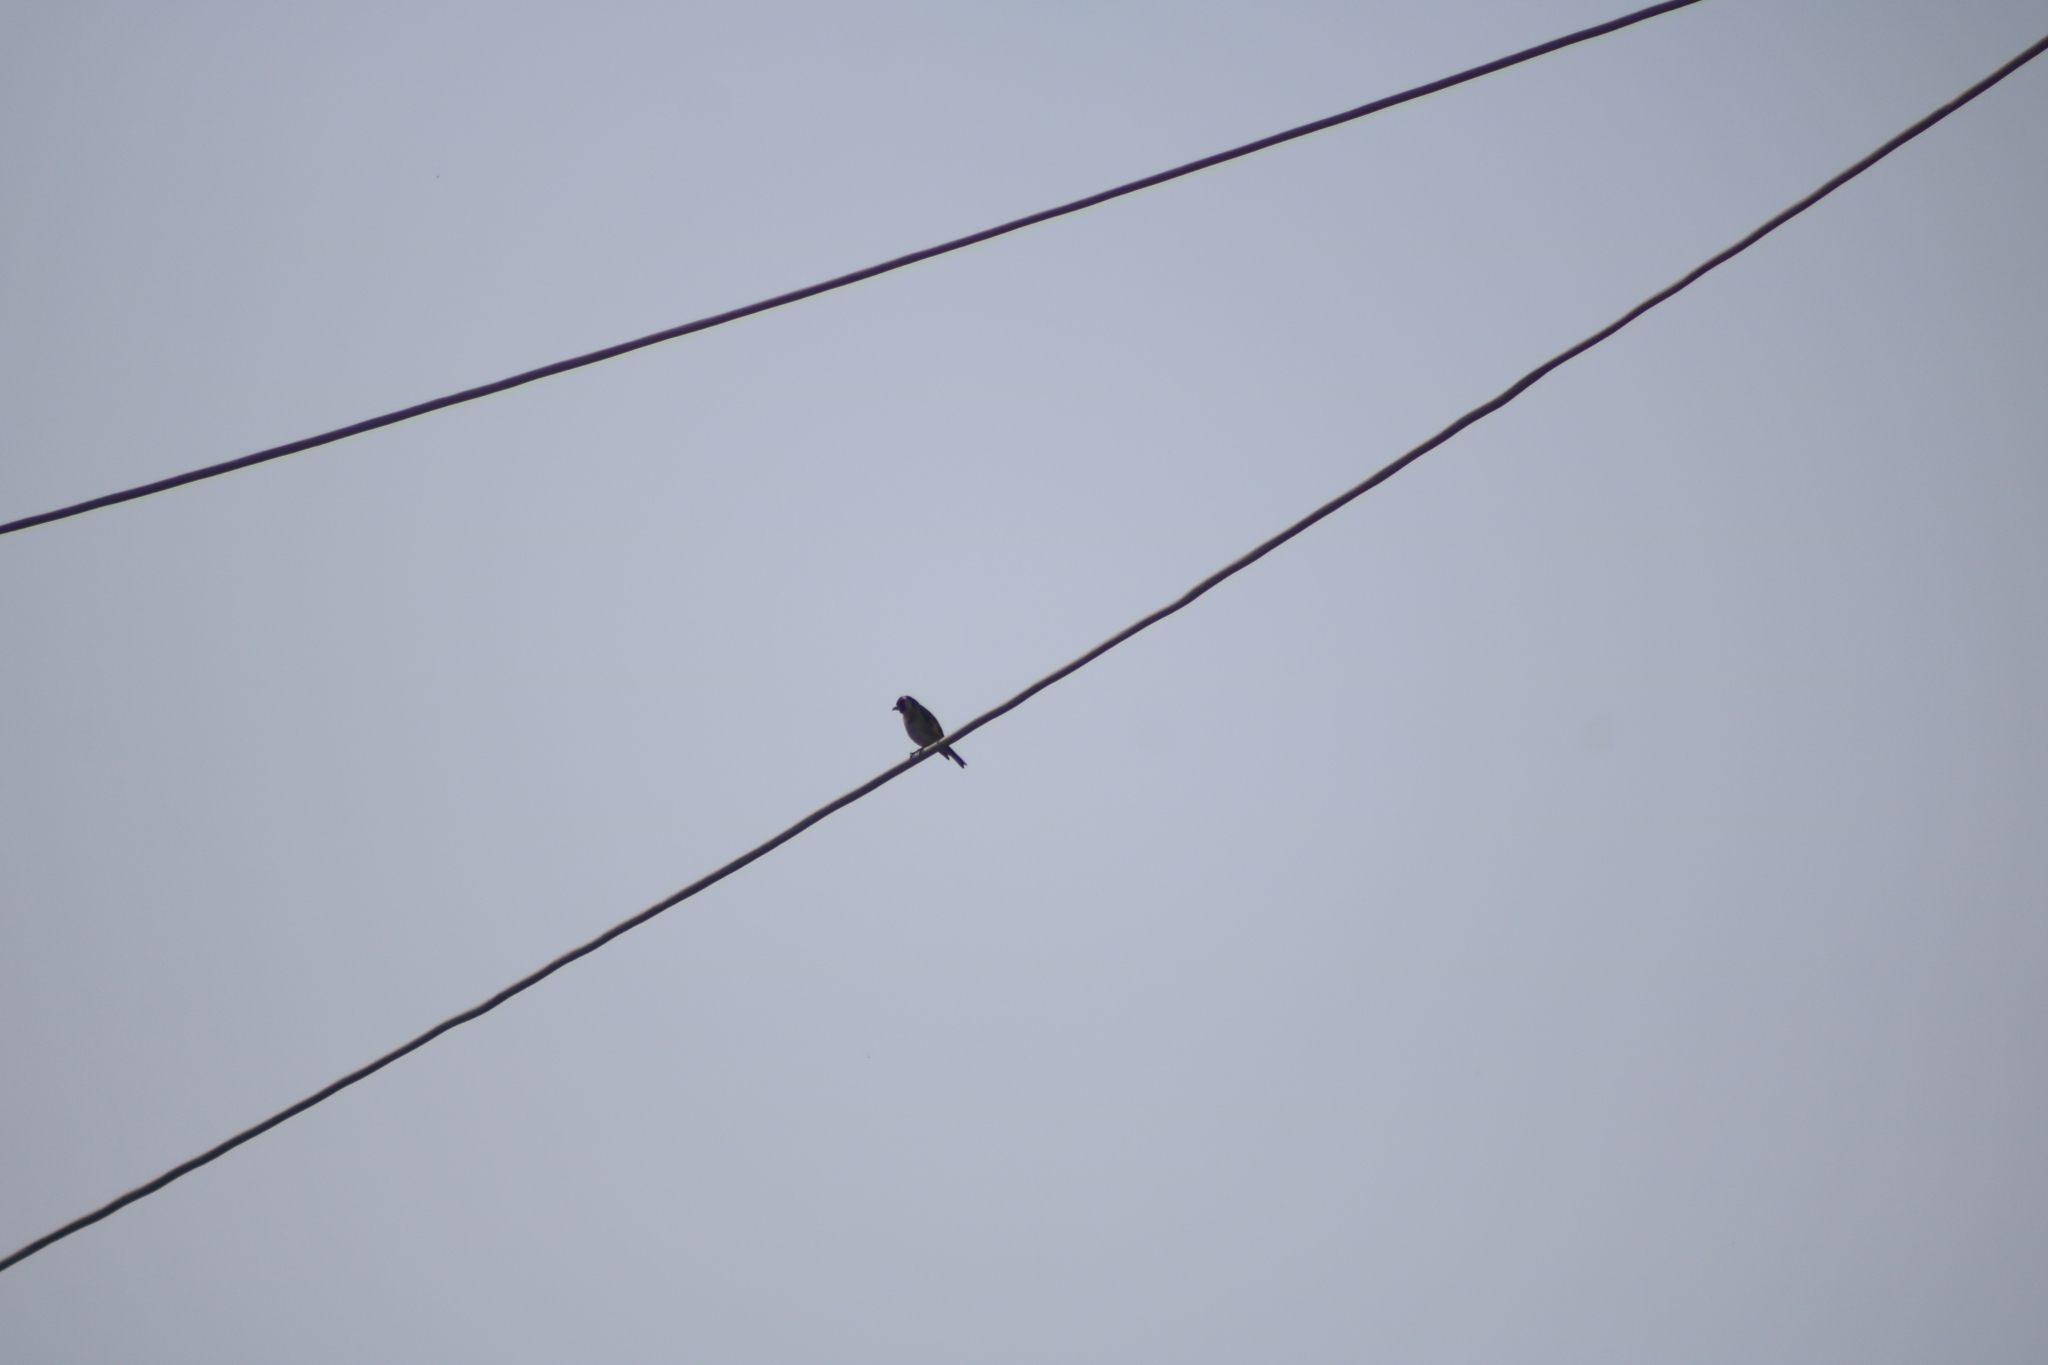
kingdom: Animalia
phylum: Chordata
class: Aves
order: Passeriformes
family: Fringillidae
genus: Carduelis
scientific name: Carduelis carduelis
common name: European goldfinch
